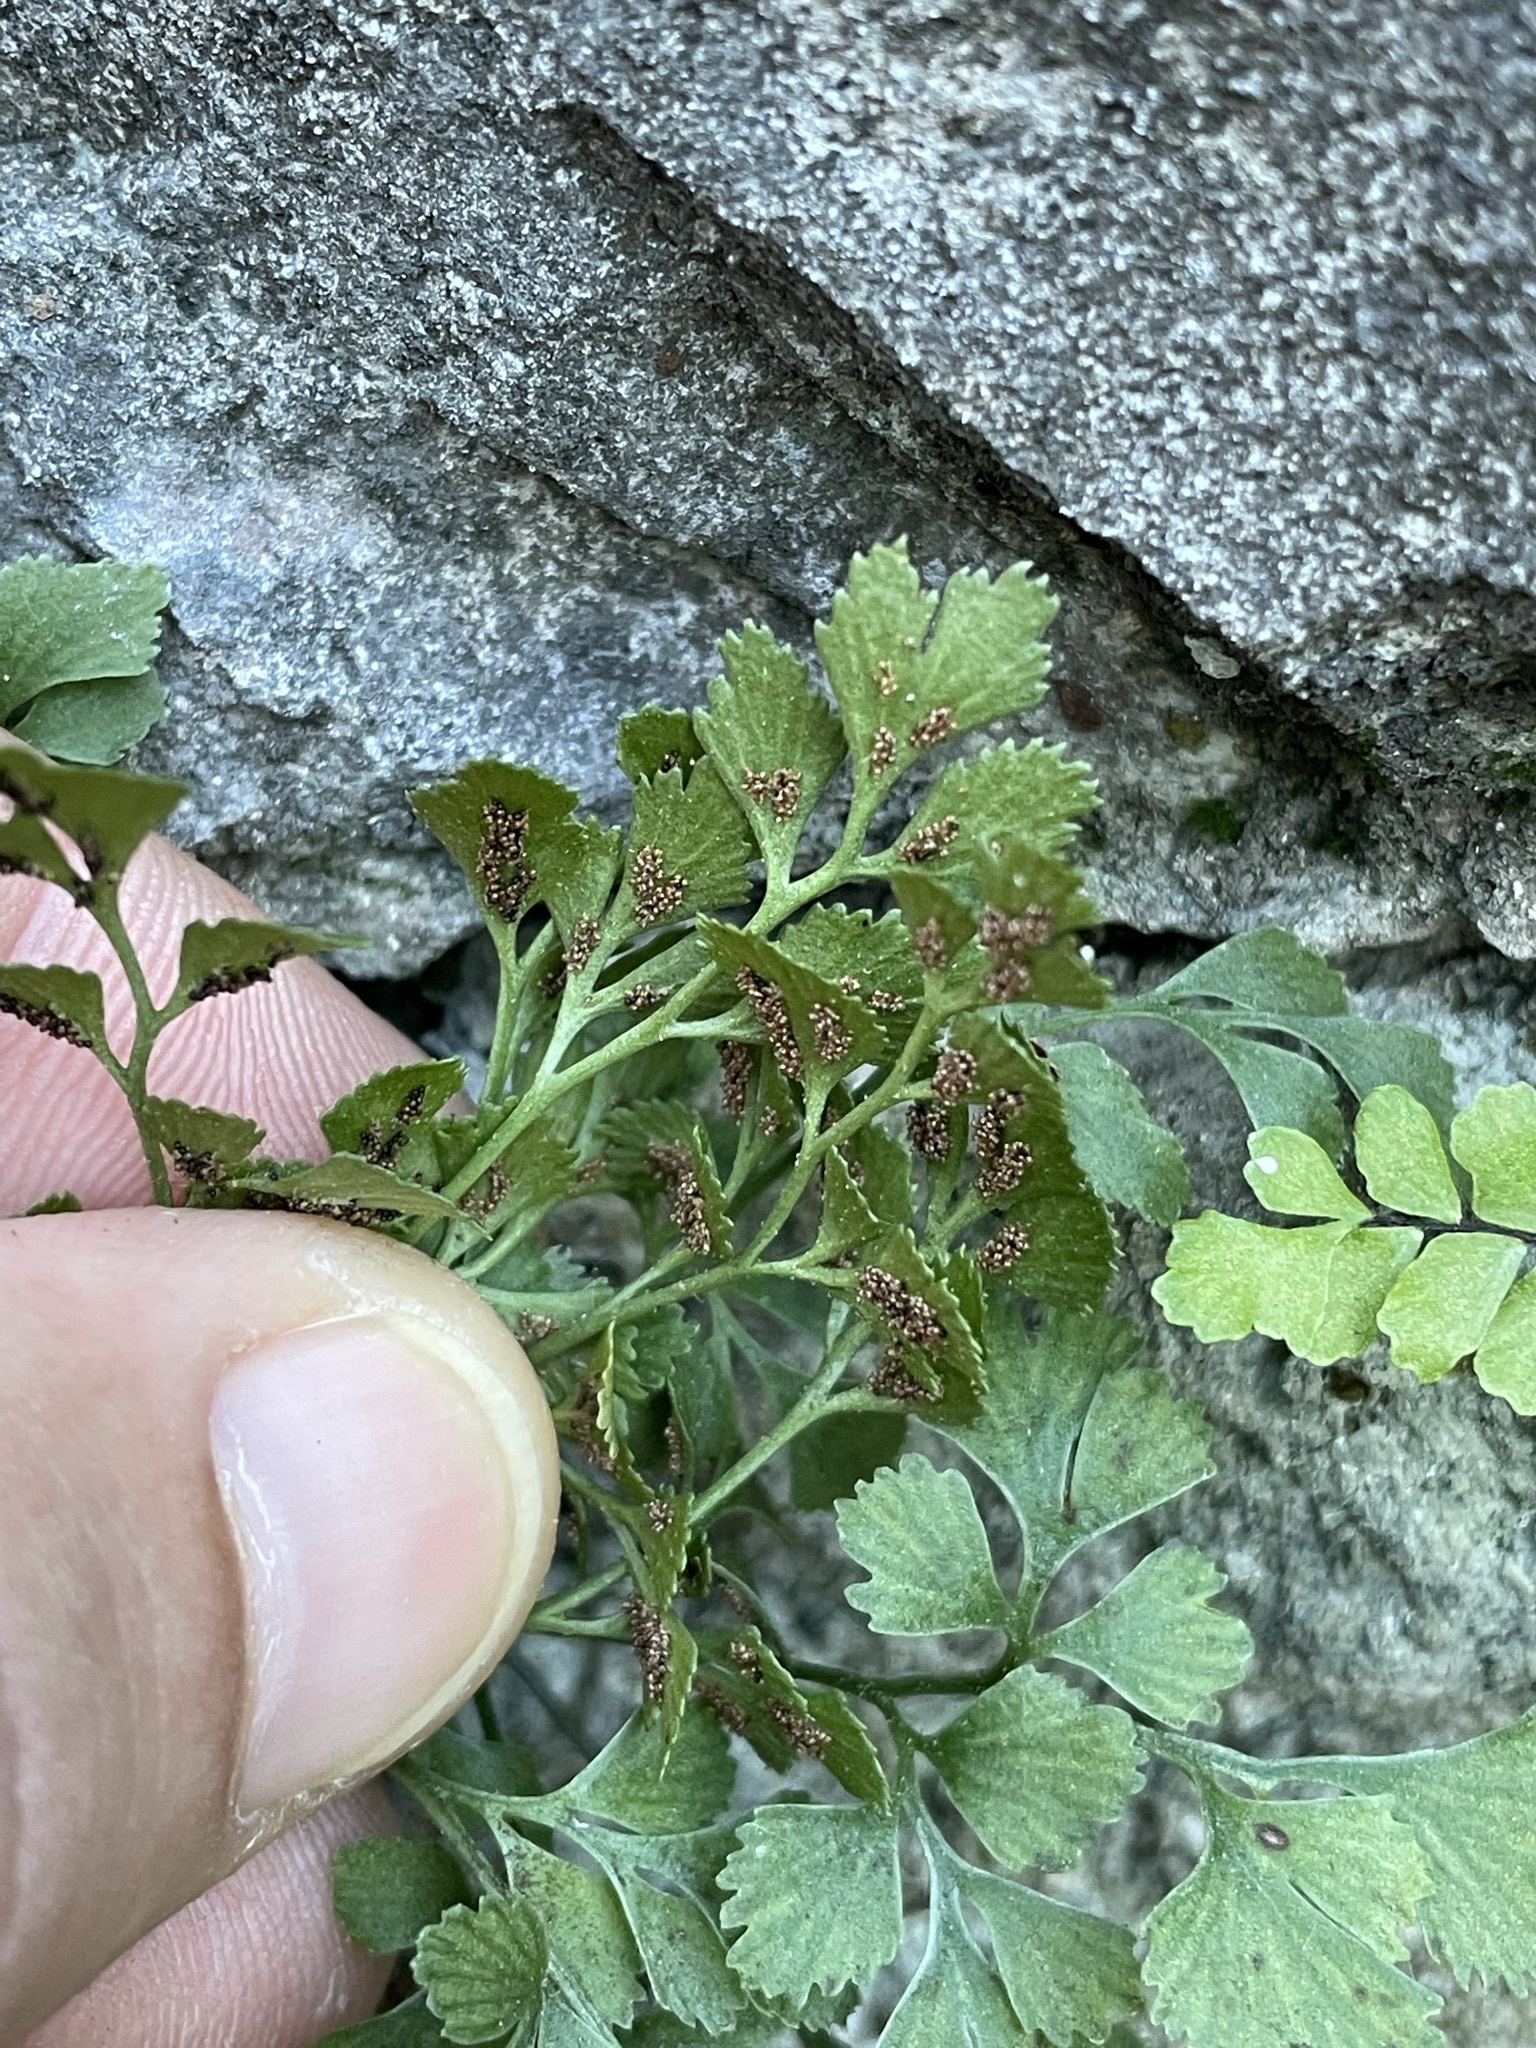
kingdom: Plantae
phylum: Tracheophyta
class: Polypodiopsida
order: Polypodiales
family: Aspleniaceae
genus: Asplenium
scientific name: Asplenium ruta-muraria
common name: Wall-rue
